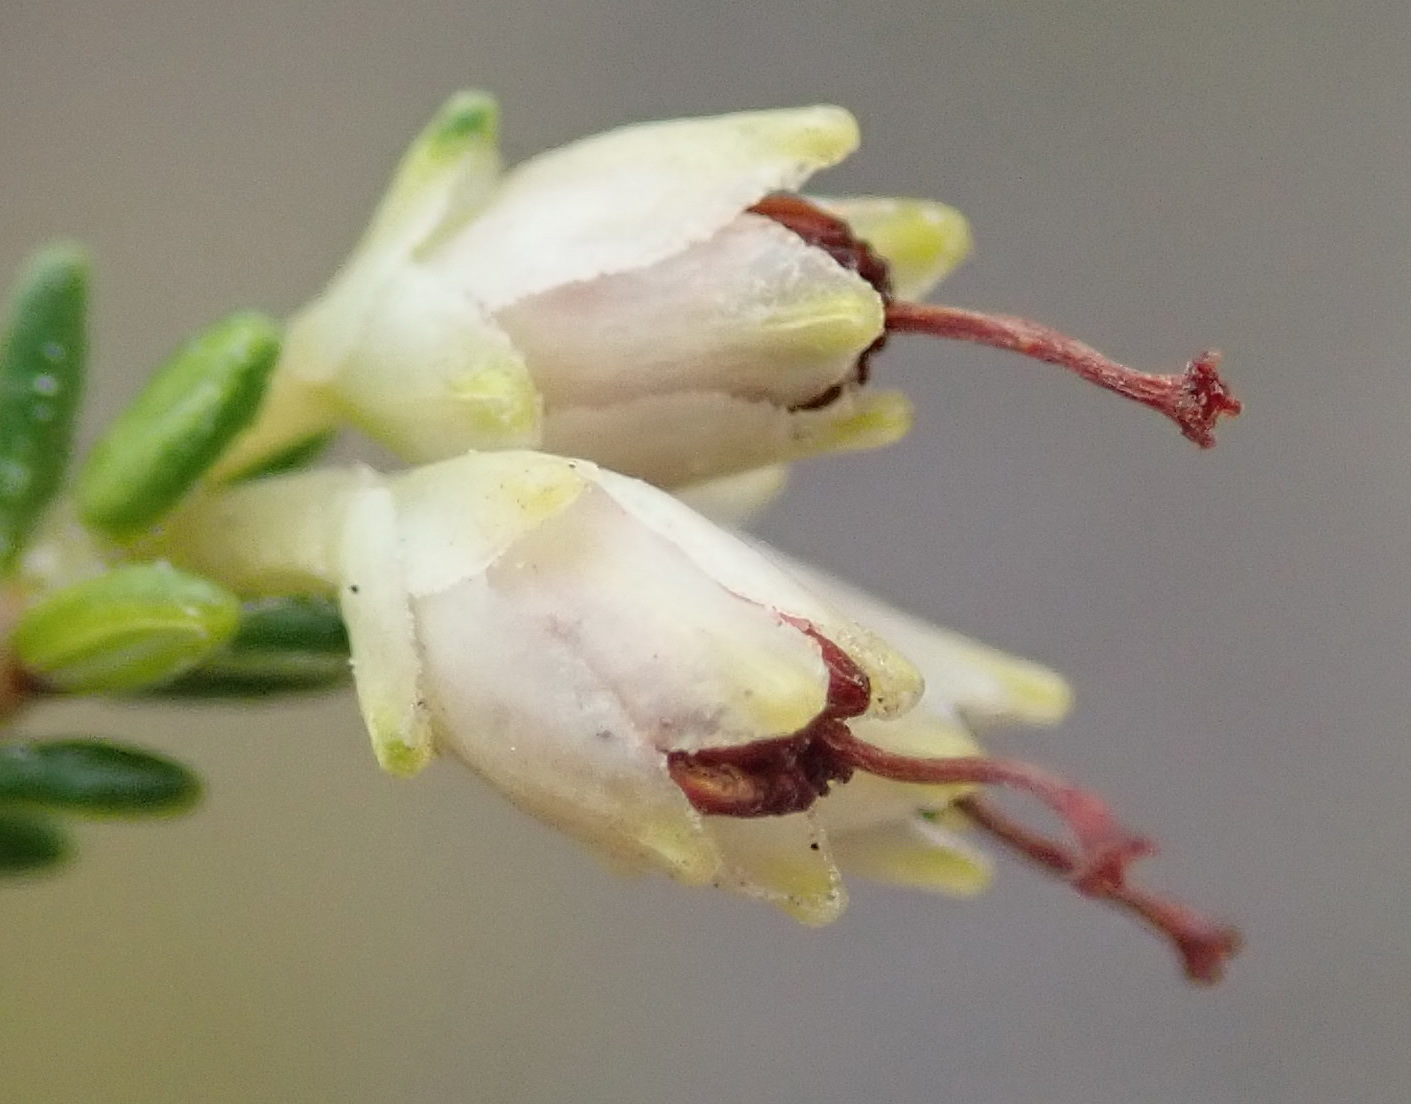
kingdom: Plantae
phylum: Tracheophyta
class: Magnoliopsida
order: Ericales
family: Ericaceae
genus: Erica
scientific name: Erica lasciva
